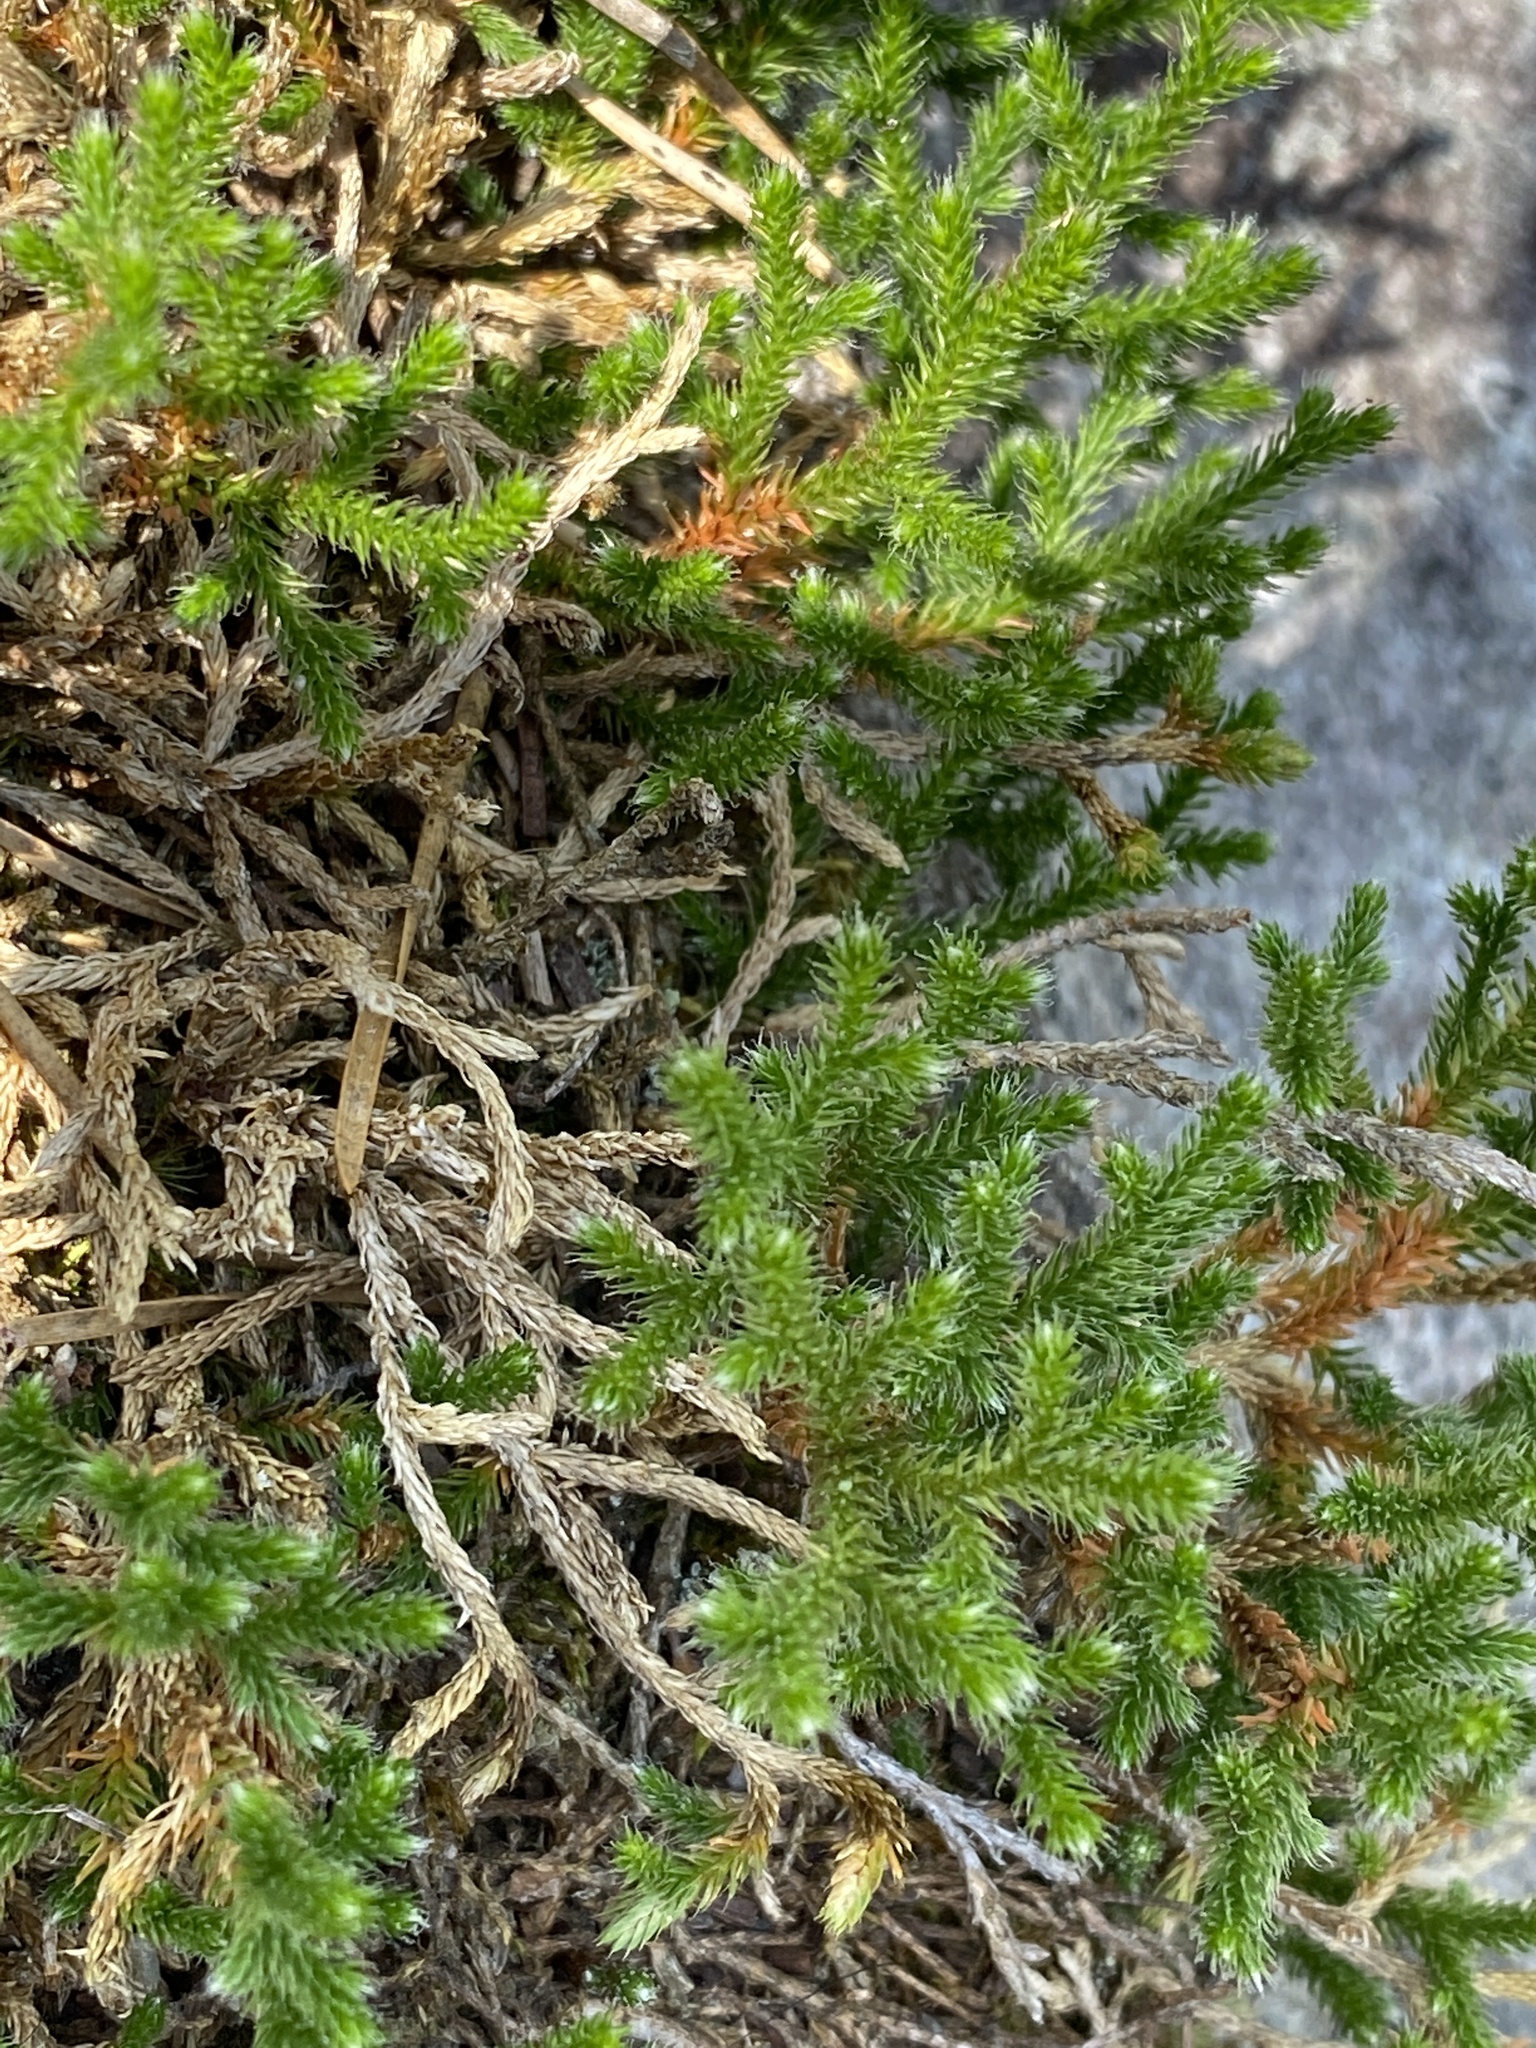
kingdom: Plantae
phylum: Tracheophyta
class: Lycopodiopsida
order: Selaginellales
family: Selaginellaceae
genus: Selaginella
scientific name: Selaginella tortipila
